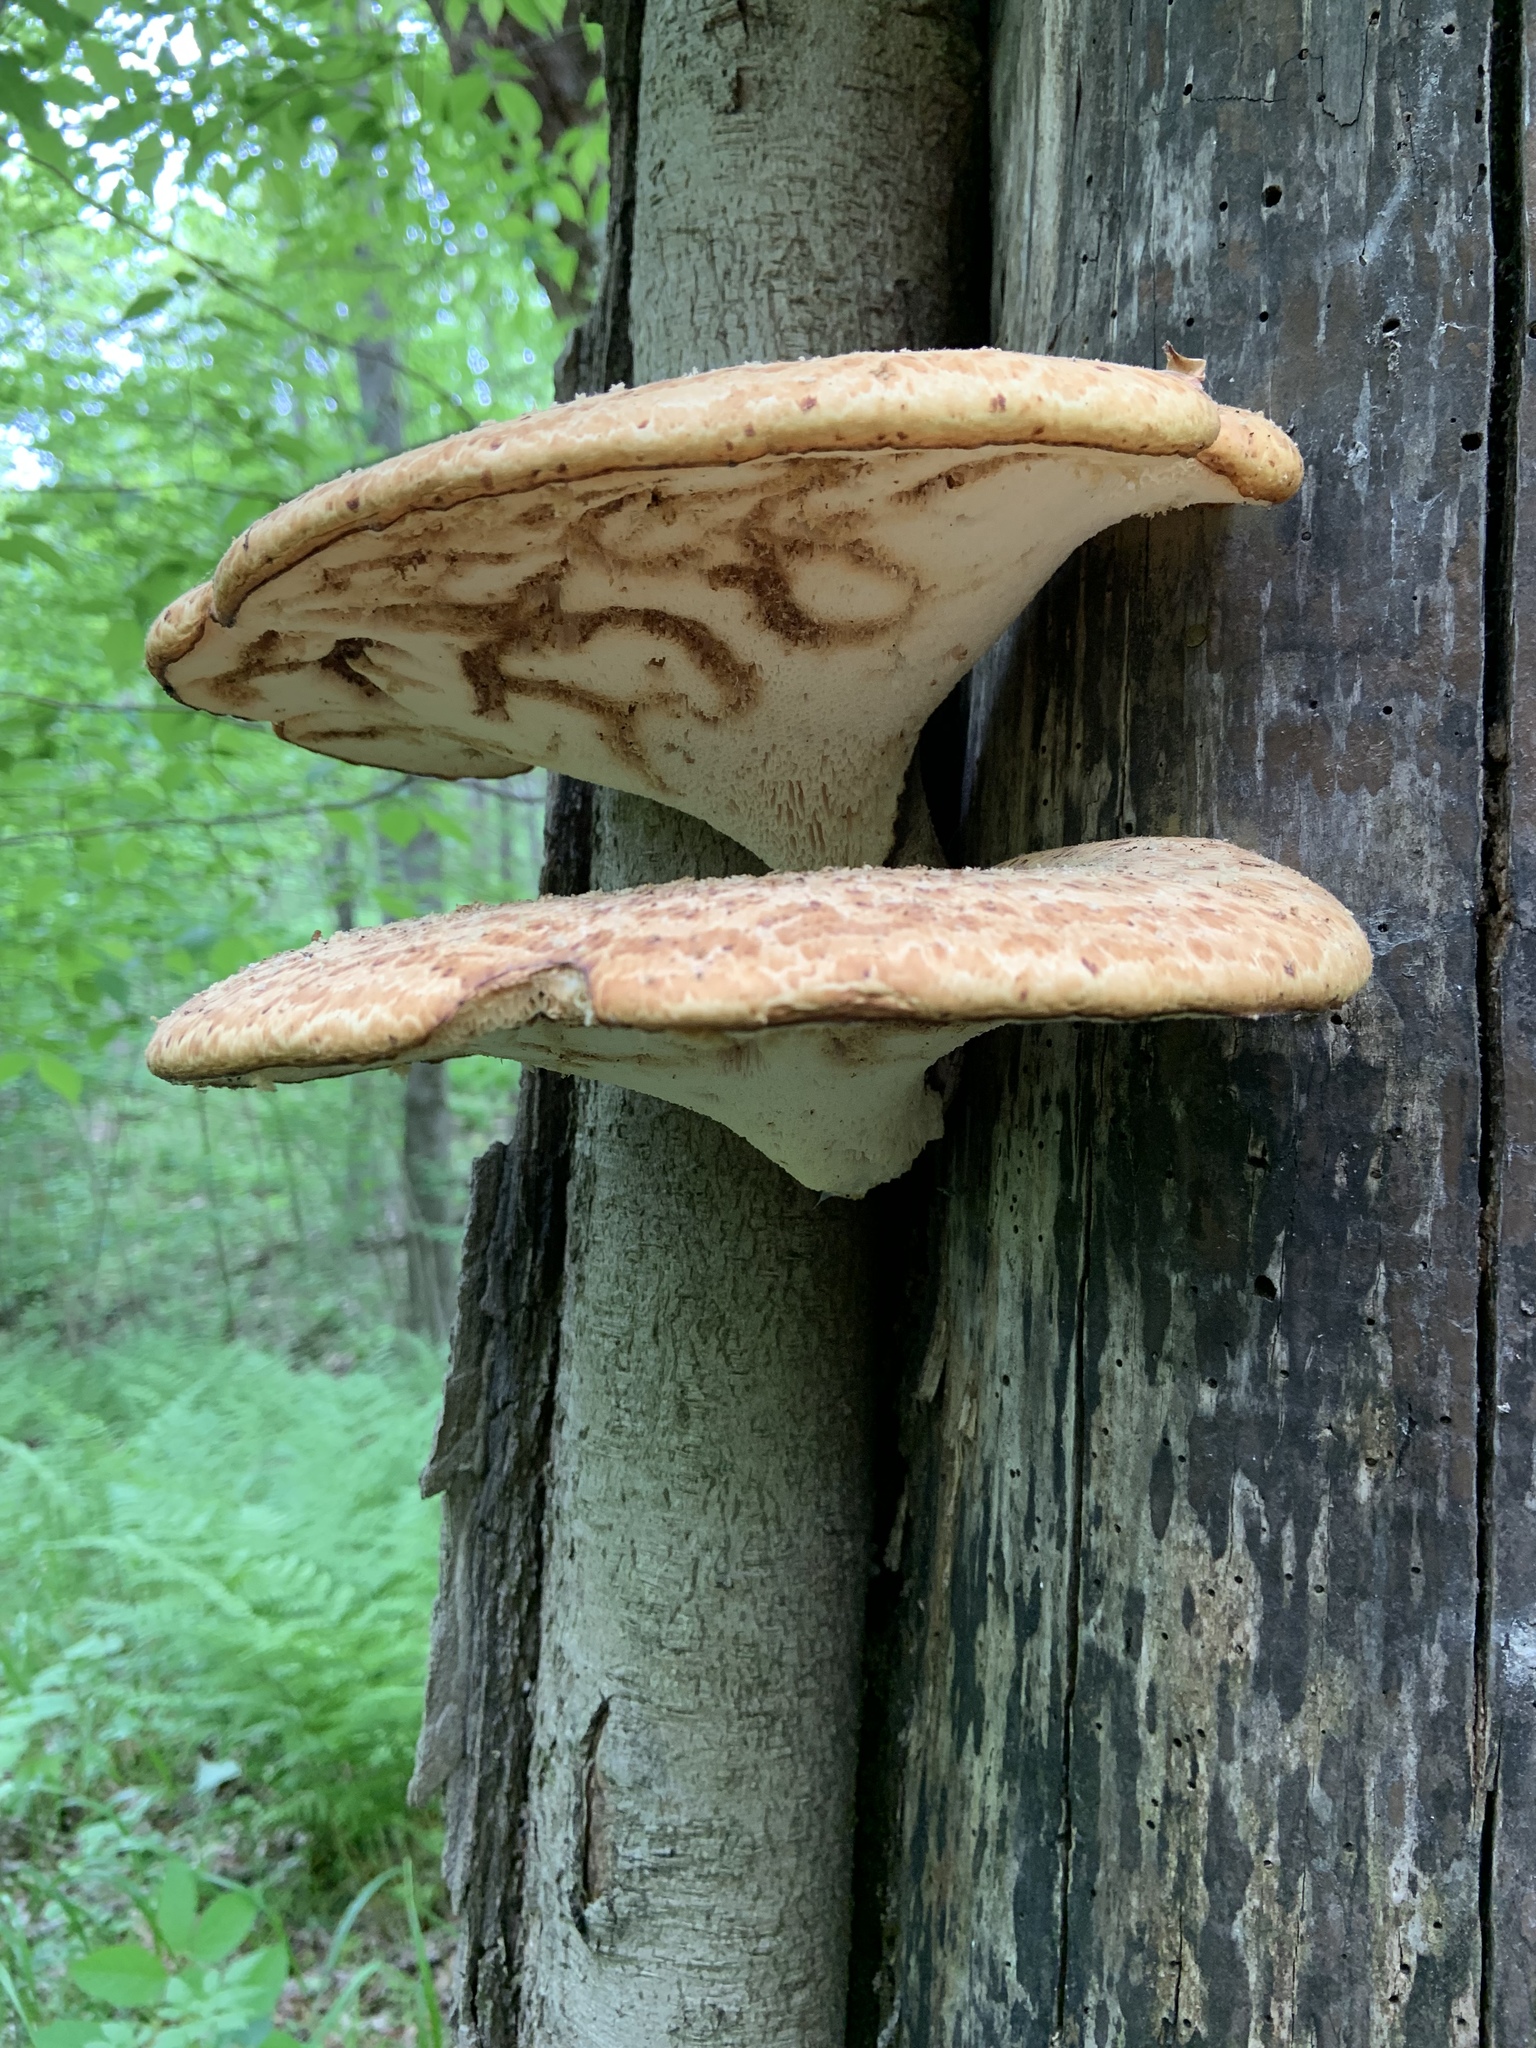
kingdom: Fungi
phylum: Basidiomycota
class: Agaricomycetes
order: Polyporales
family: Polyporaceae
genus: Cerioporus
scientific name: Cerioporus squamosus
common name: Dryad's saddle
